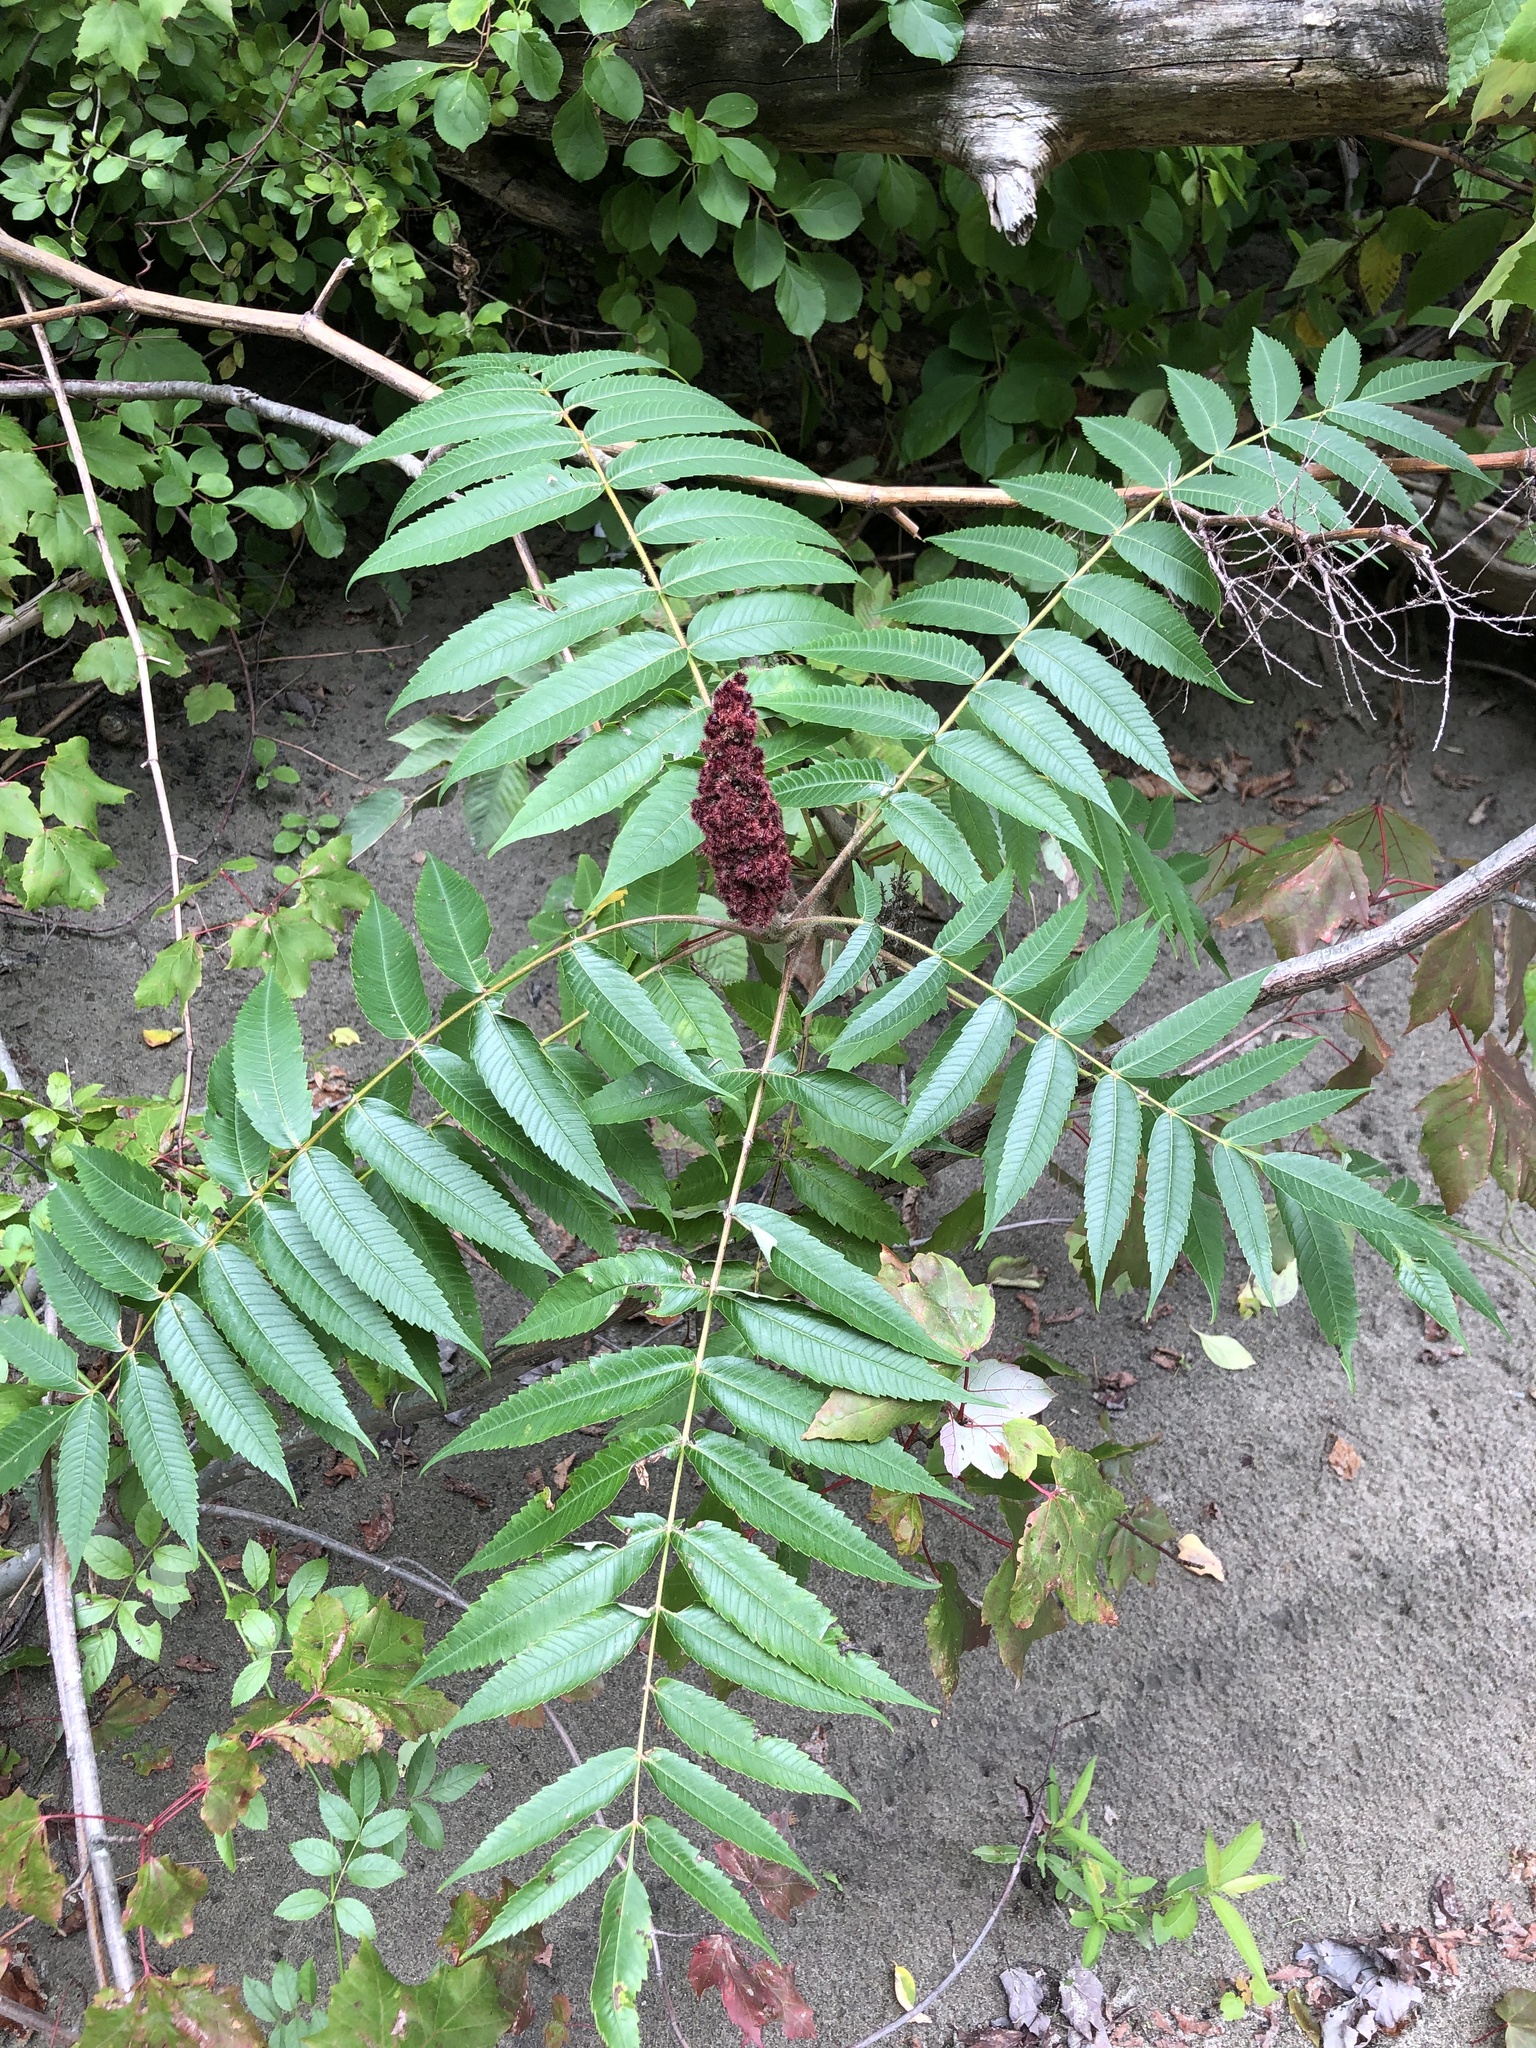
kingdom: Plantae
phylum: Tracheophyta
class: Magnoliopsida
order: Sapindales
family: Anacardiaceae
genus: Rhus
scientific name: Rhus typhina
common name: Staghorn sumac
